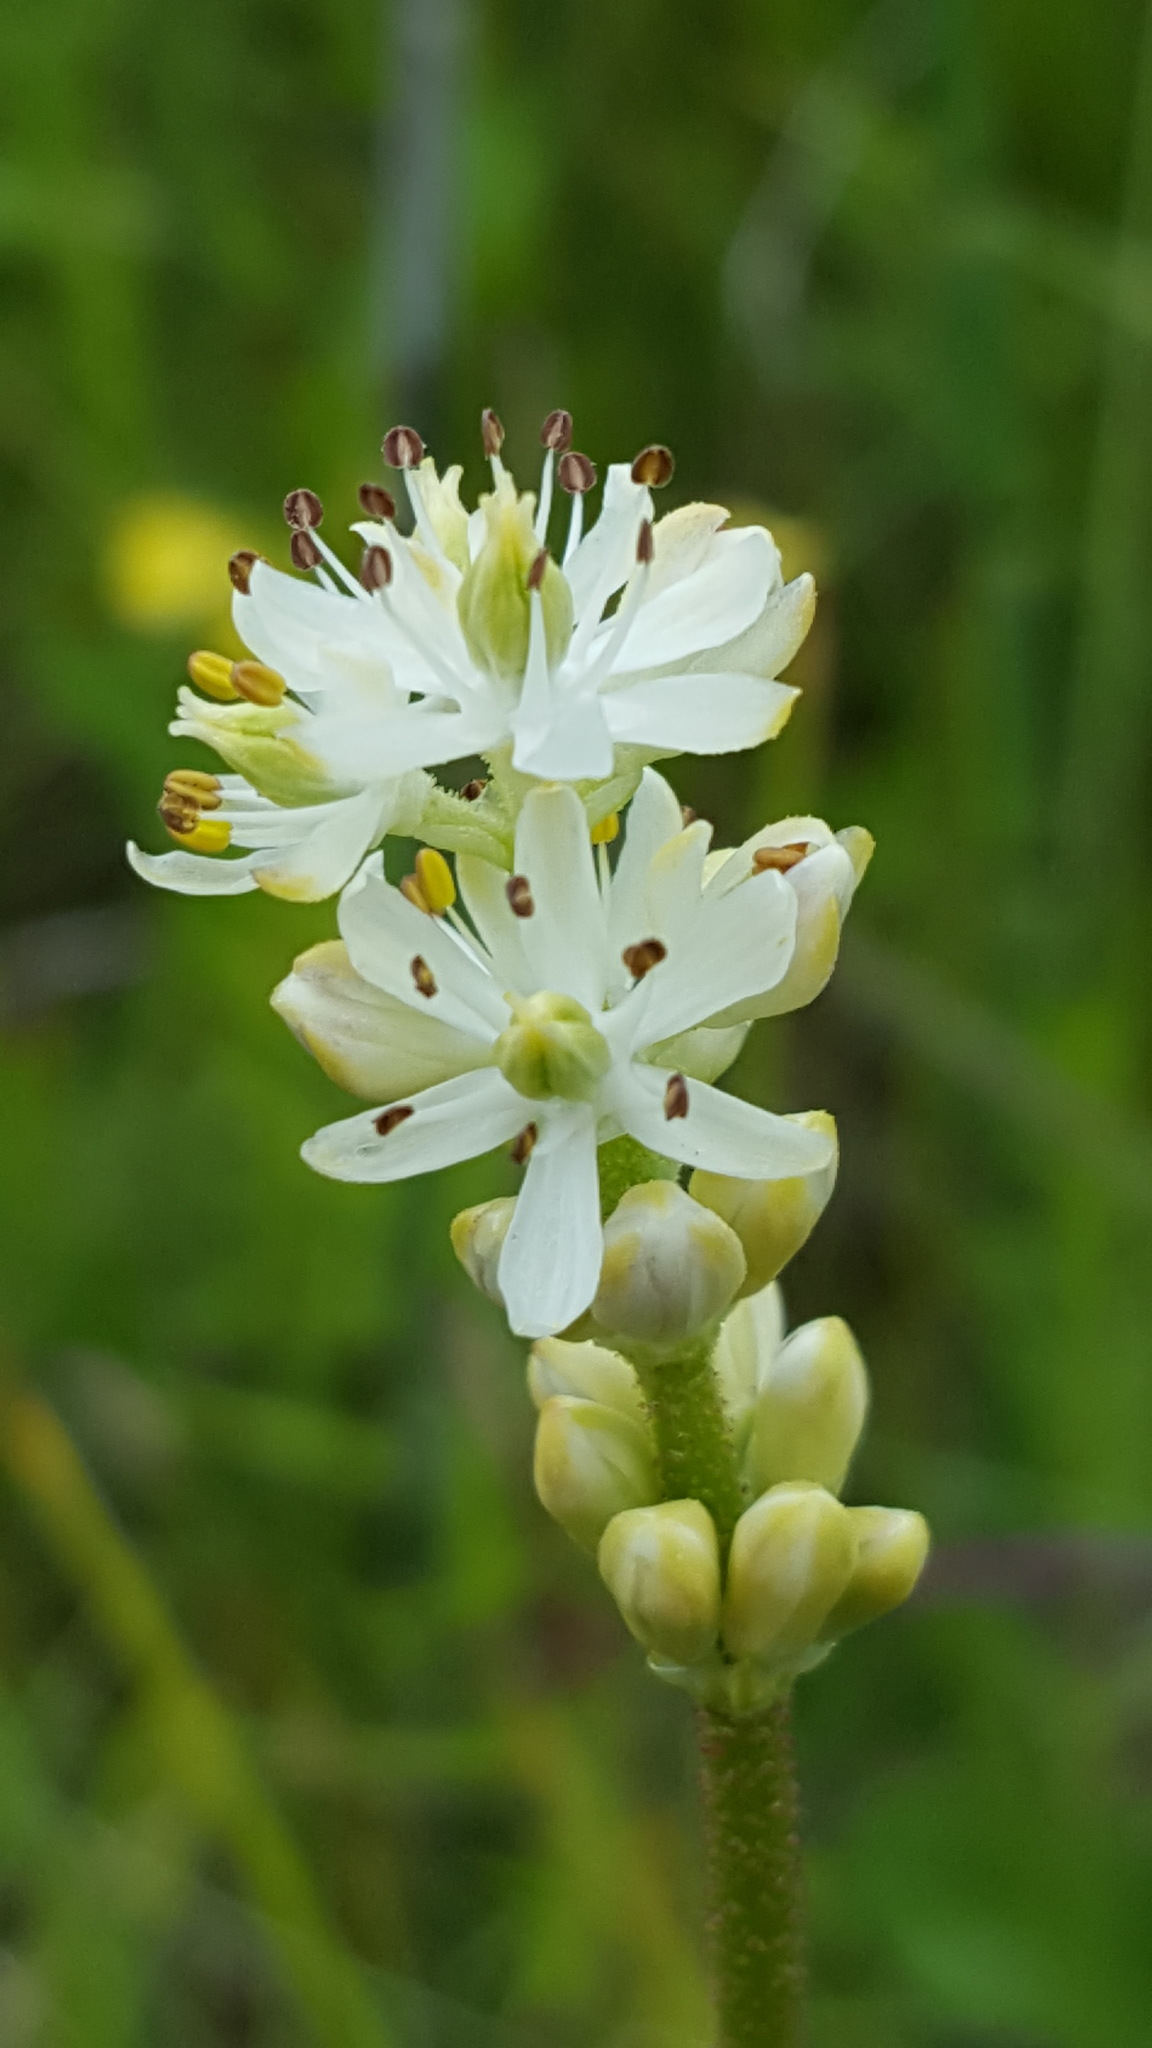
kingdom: Plantae
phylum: Tracheophyta
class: Liliopsida
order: Alismatales
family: Tofieldiaceae
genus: Triantha
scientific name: Triantha glutinosa
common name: Glutinous tofieldia
